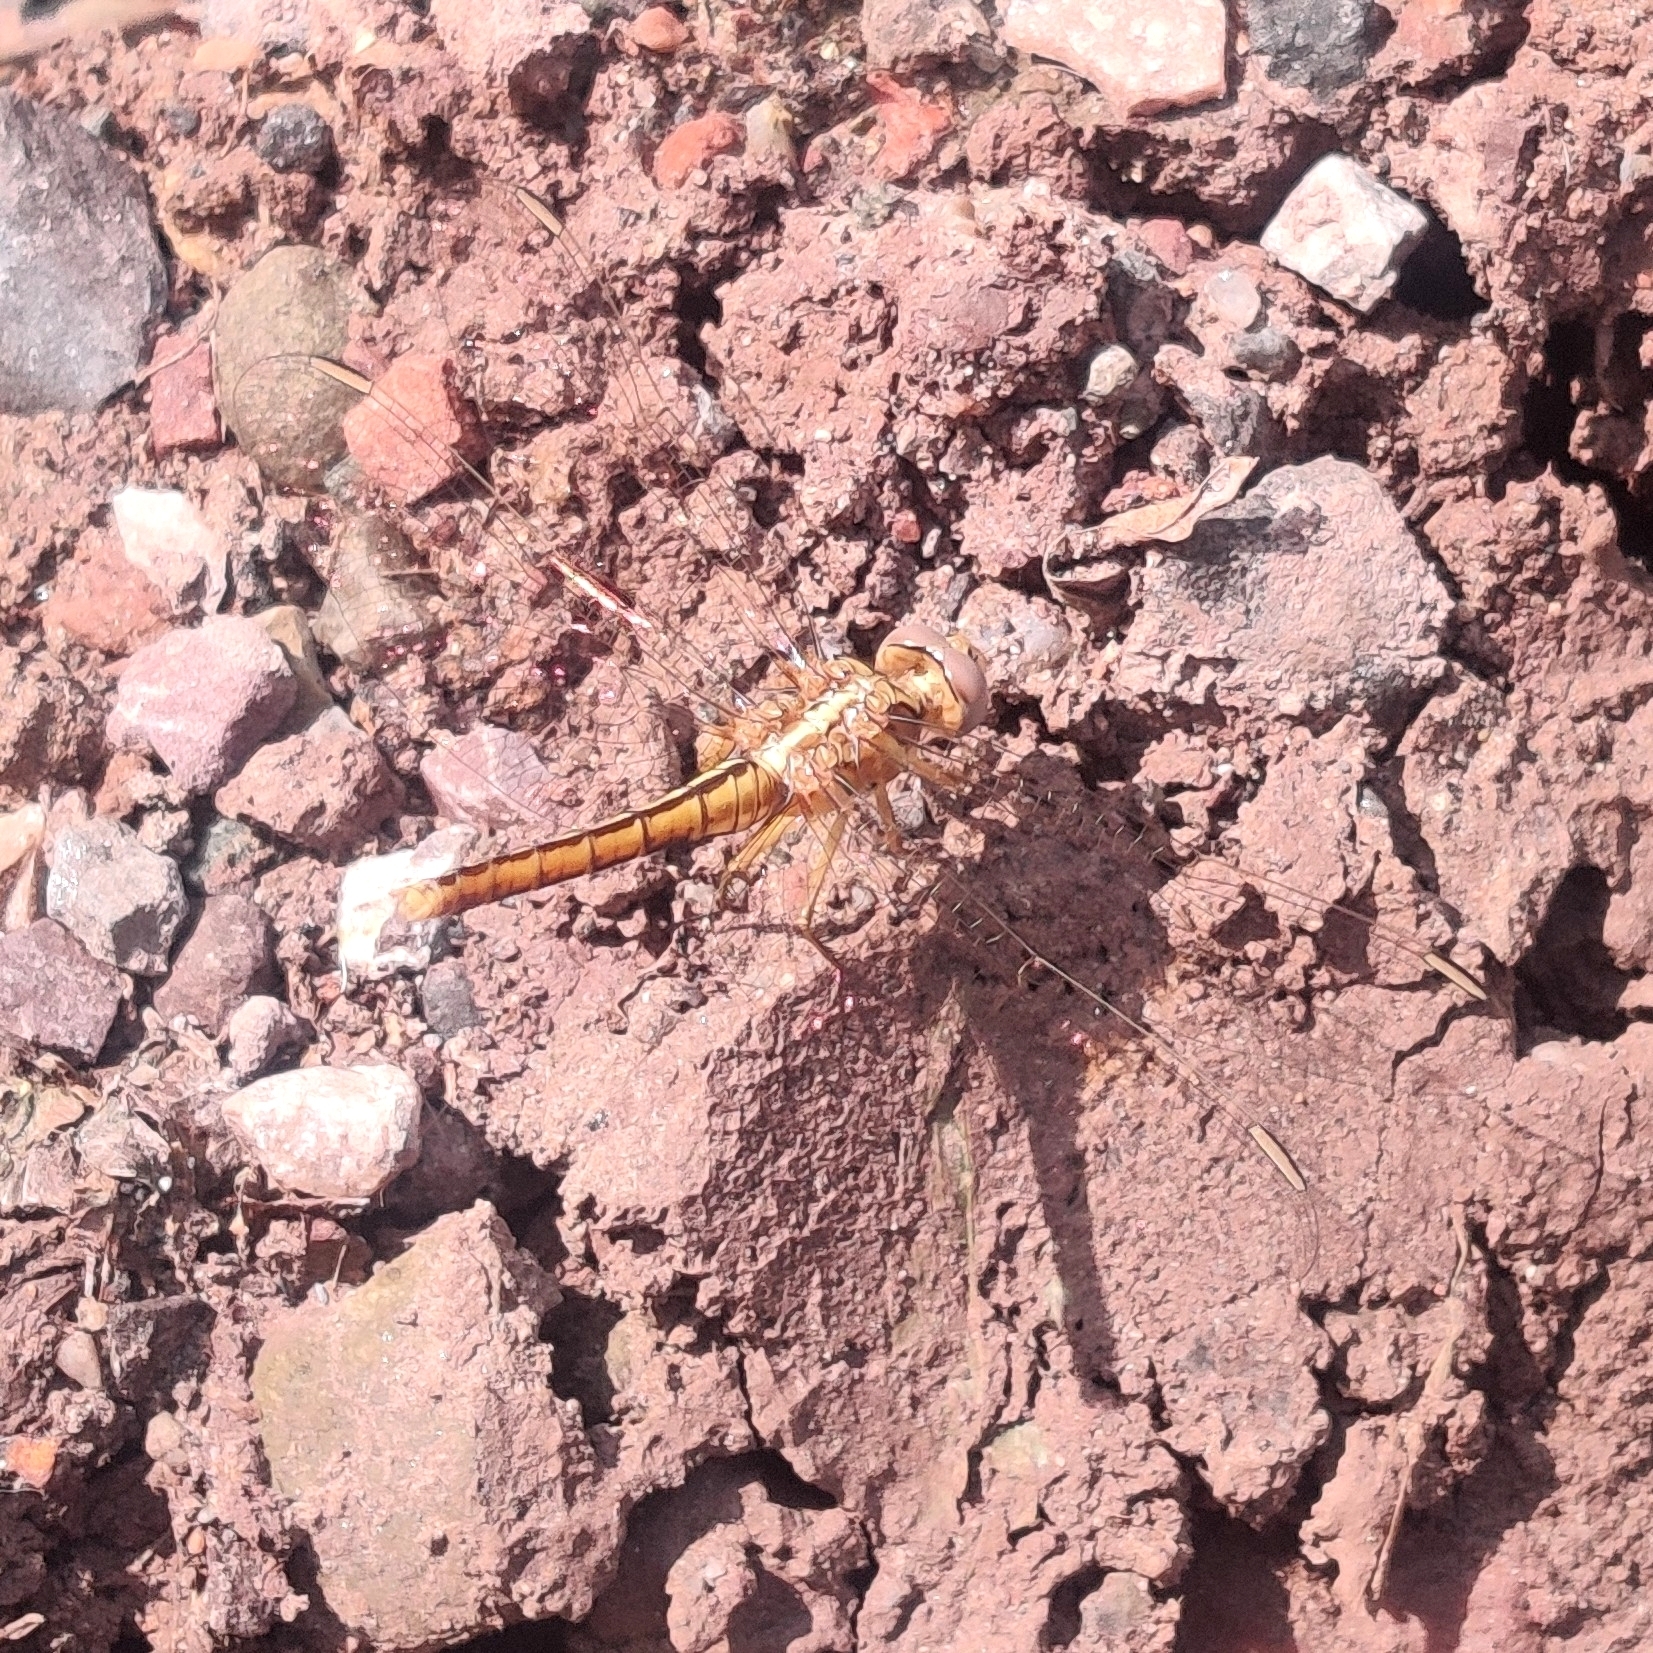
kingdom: Animalia
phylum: Arthropoda
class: Insecta
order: Odonata
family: Libellulidae
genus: Orthetrum
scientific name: Orthetrum taeniolatum
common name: Small skimmer
